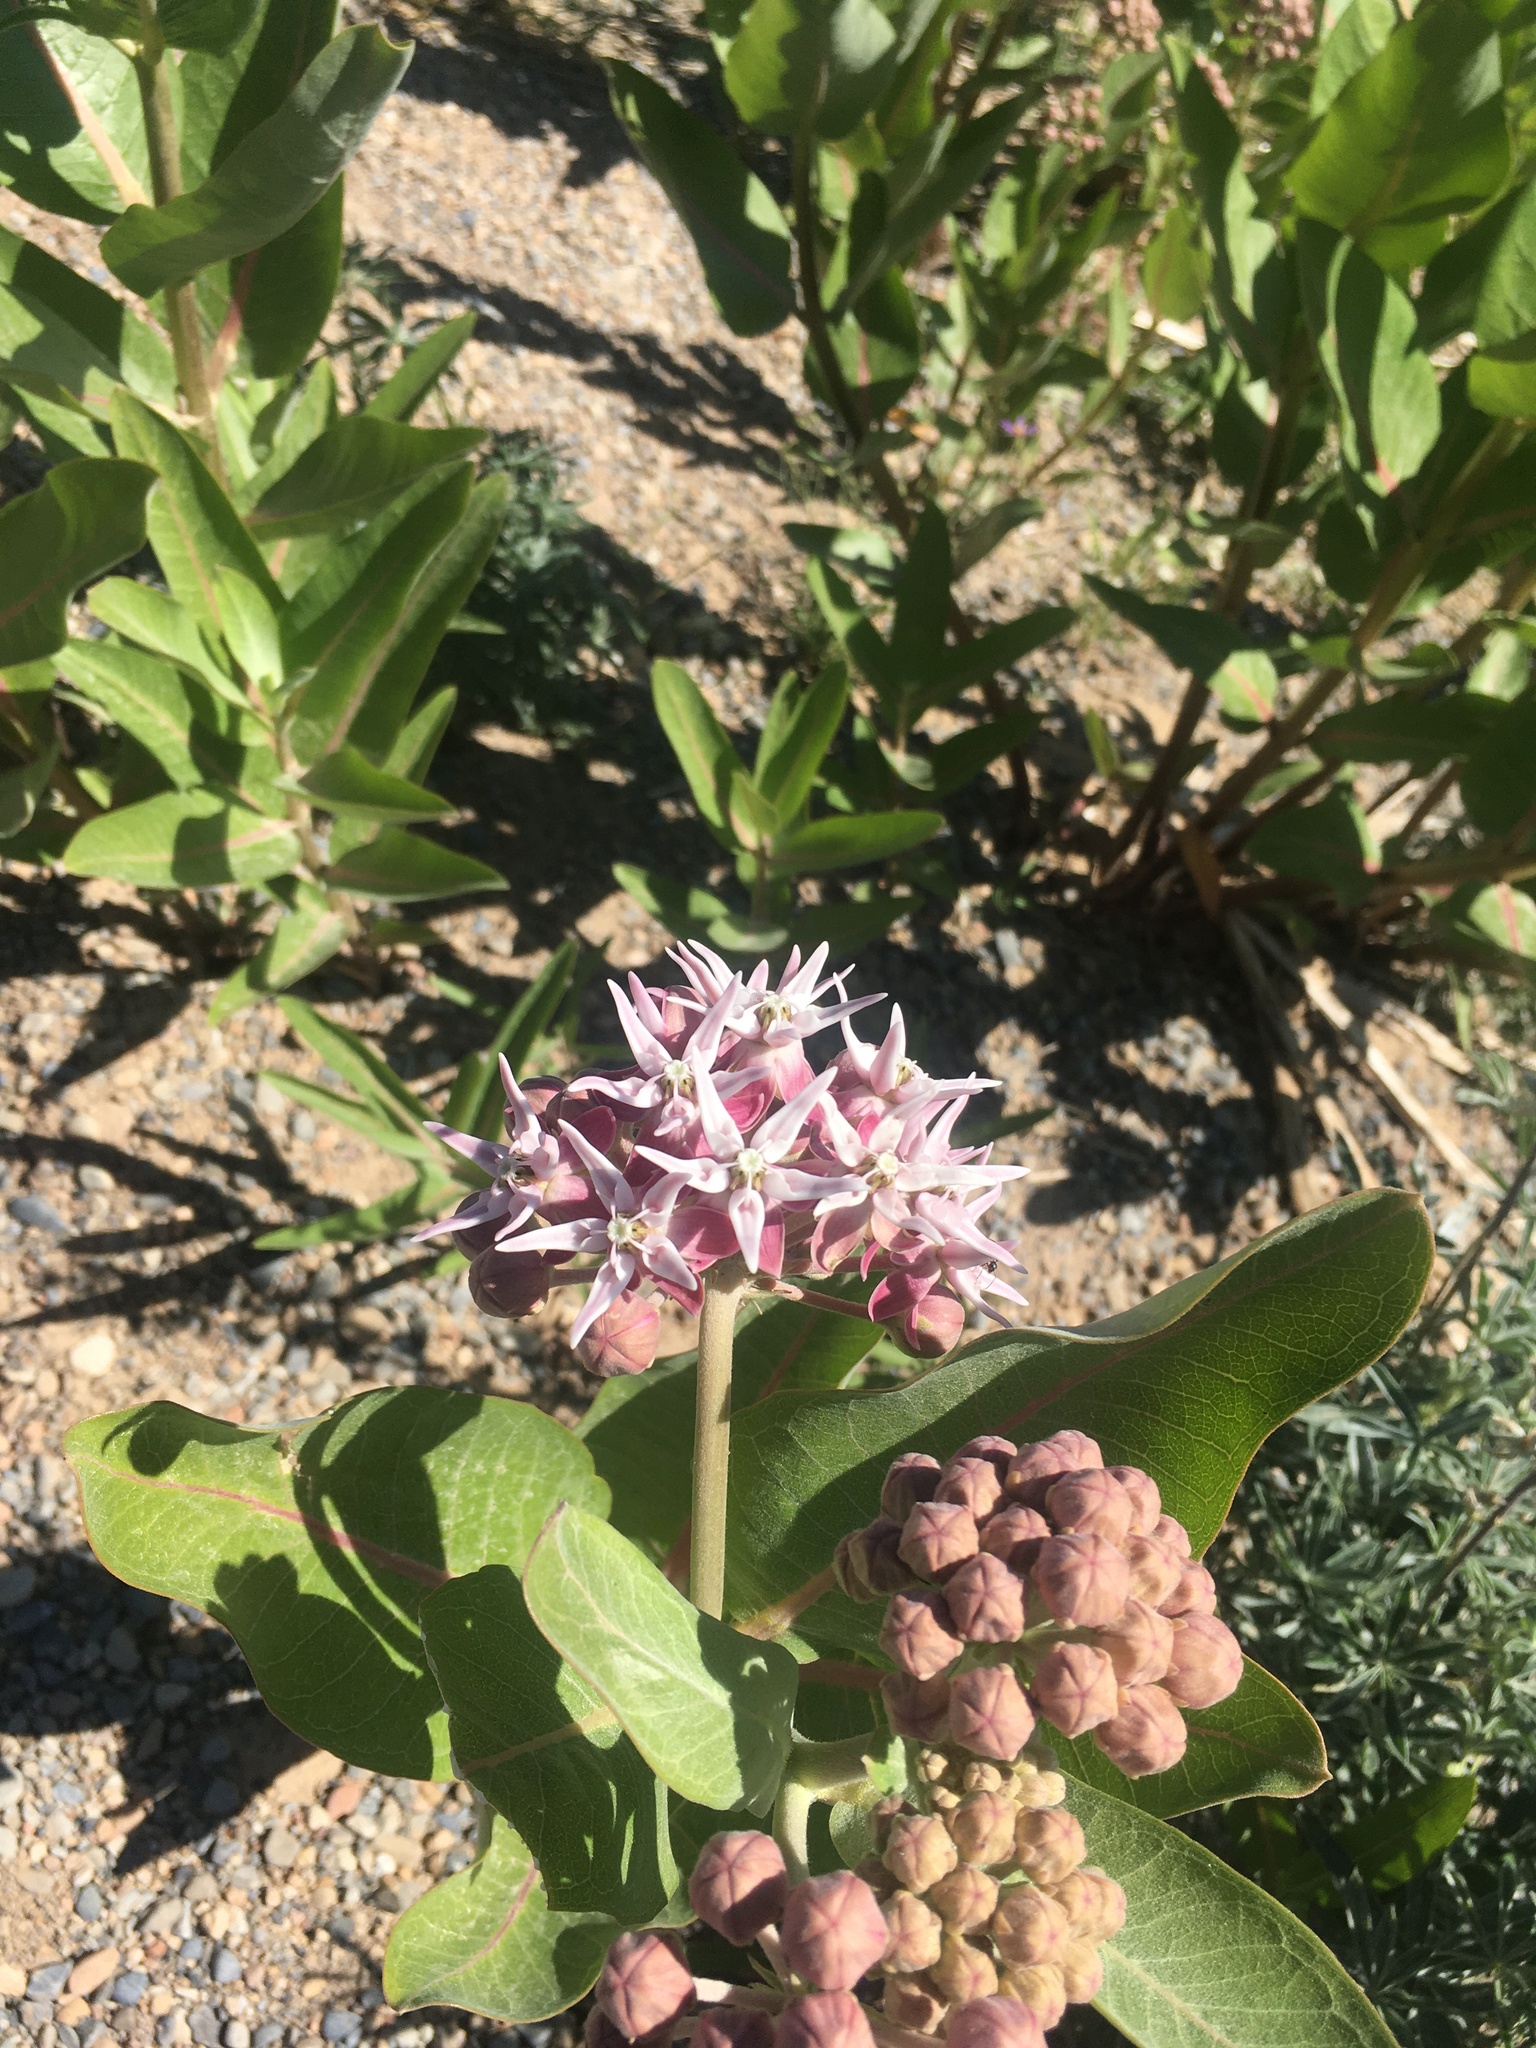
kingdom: Plantae
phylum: Tracheophyta
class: Magnoliopsida
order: Gentianales
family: Apocynaceae
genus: Asclepias
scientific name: Asclepias speciosa
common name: Showy milkweed
